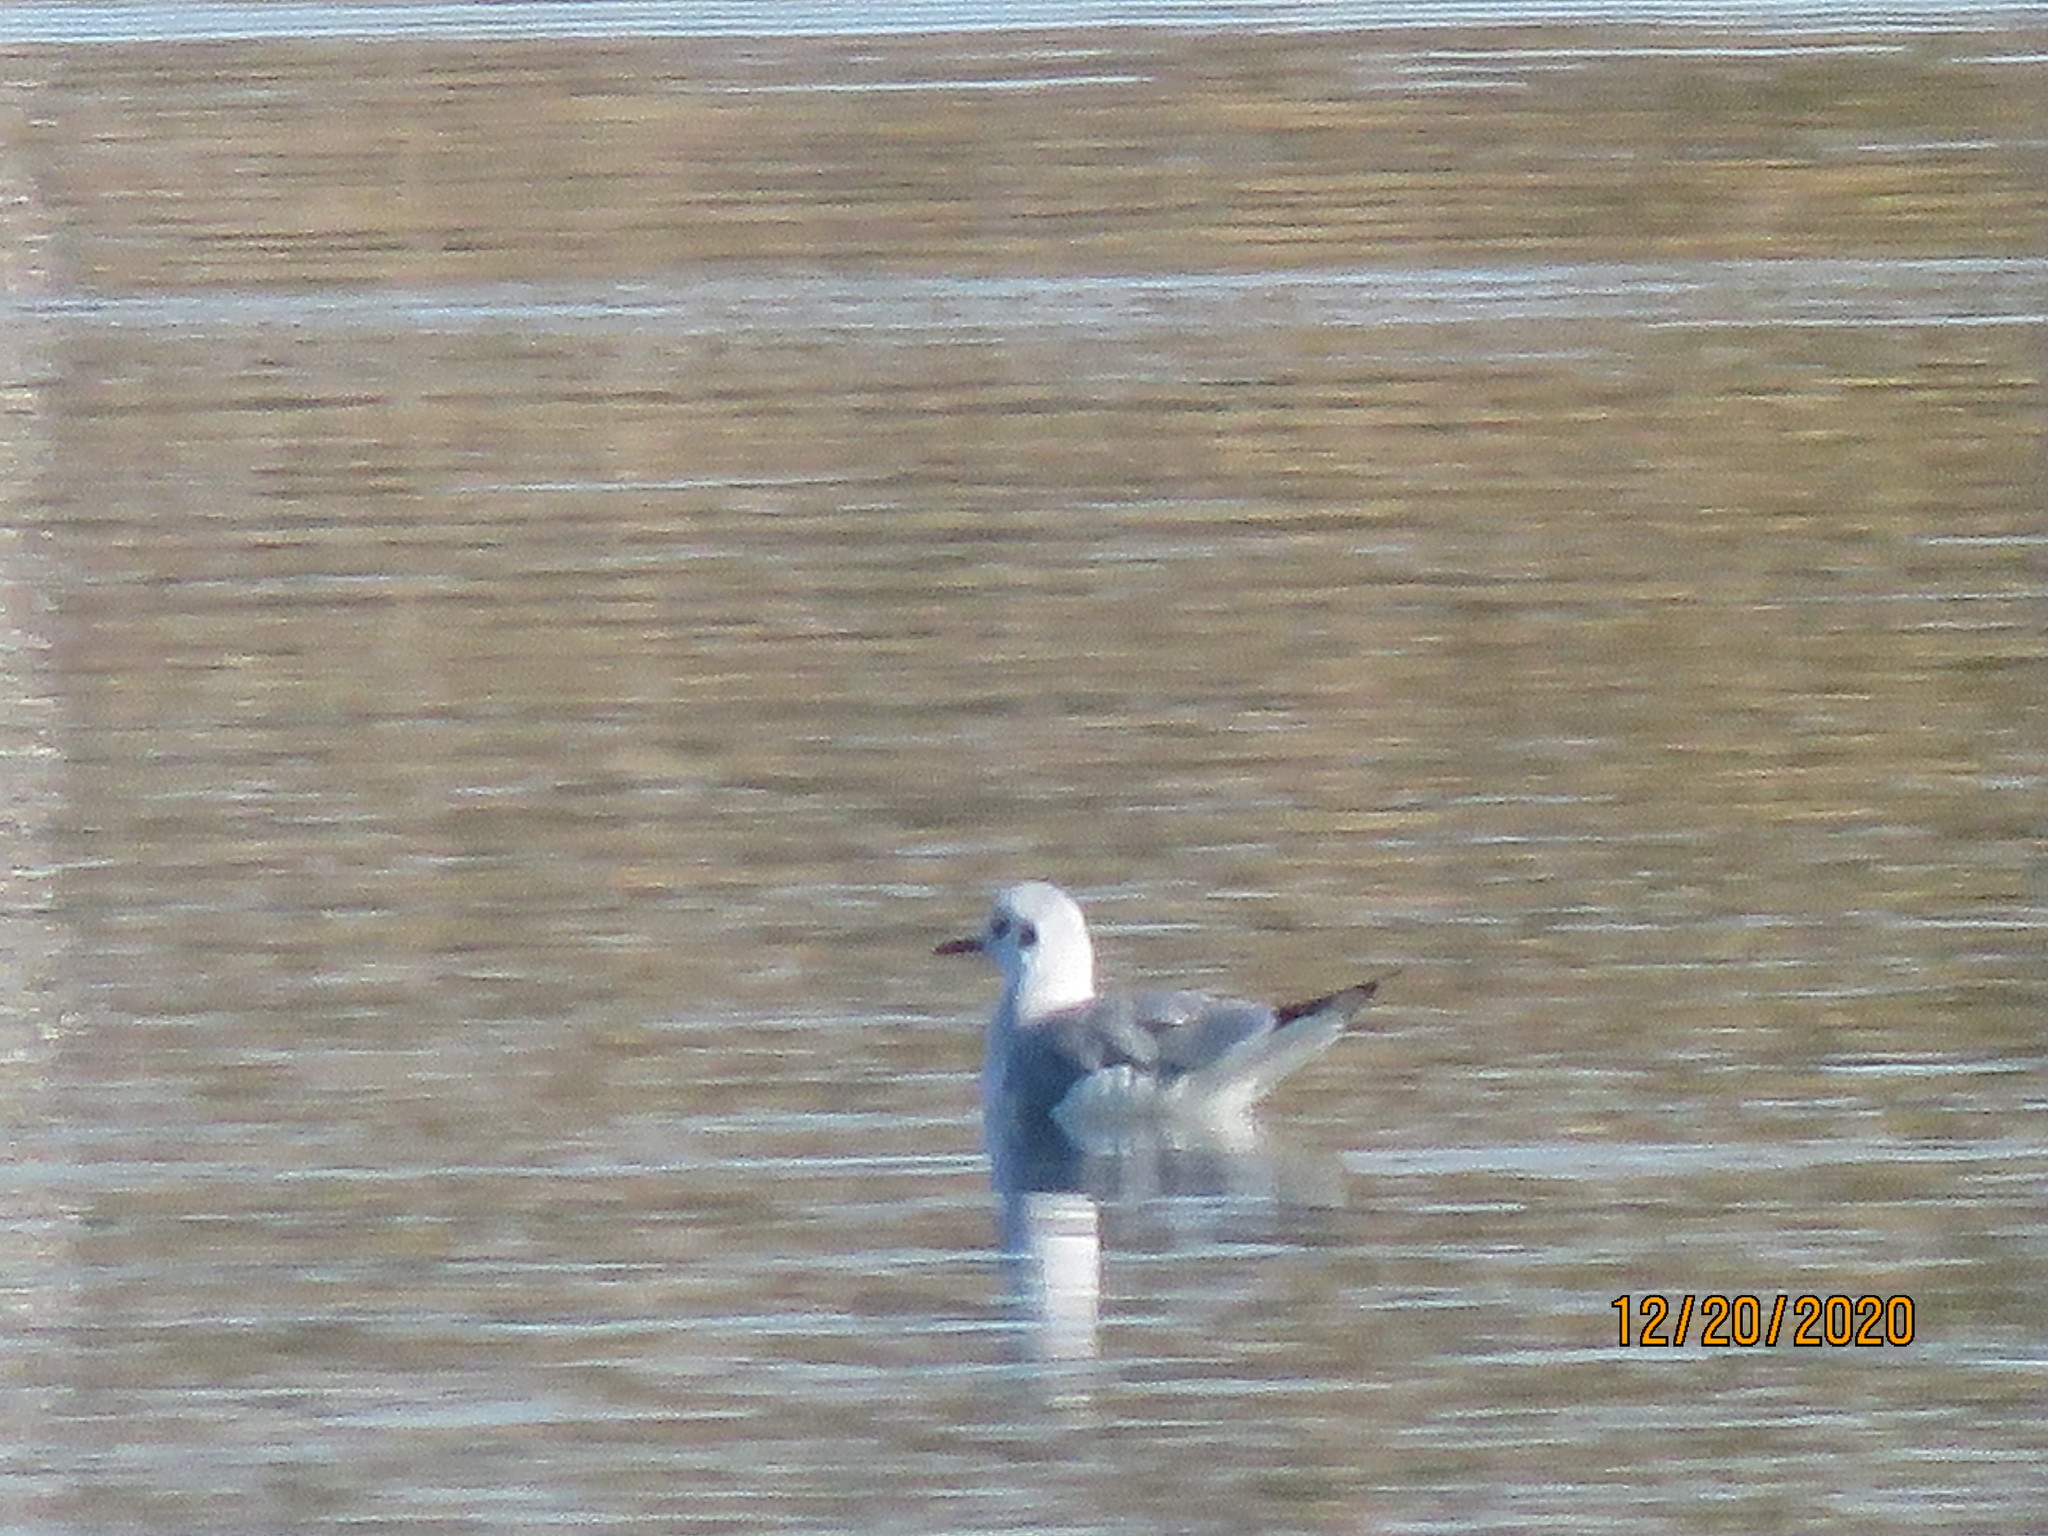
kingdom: Animalia
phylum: Chordata
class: Aves
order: Charadriiformes
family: Laridae
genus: Chroicocephalus
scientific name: Chroicocephalus philadelphia
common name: Bonaparte's gull
